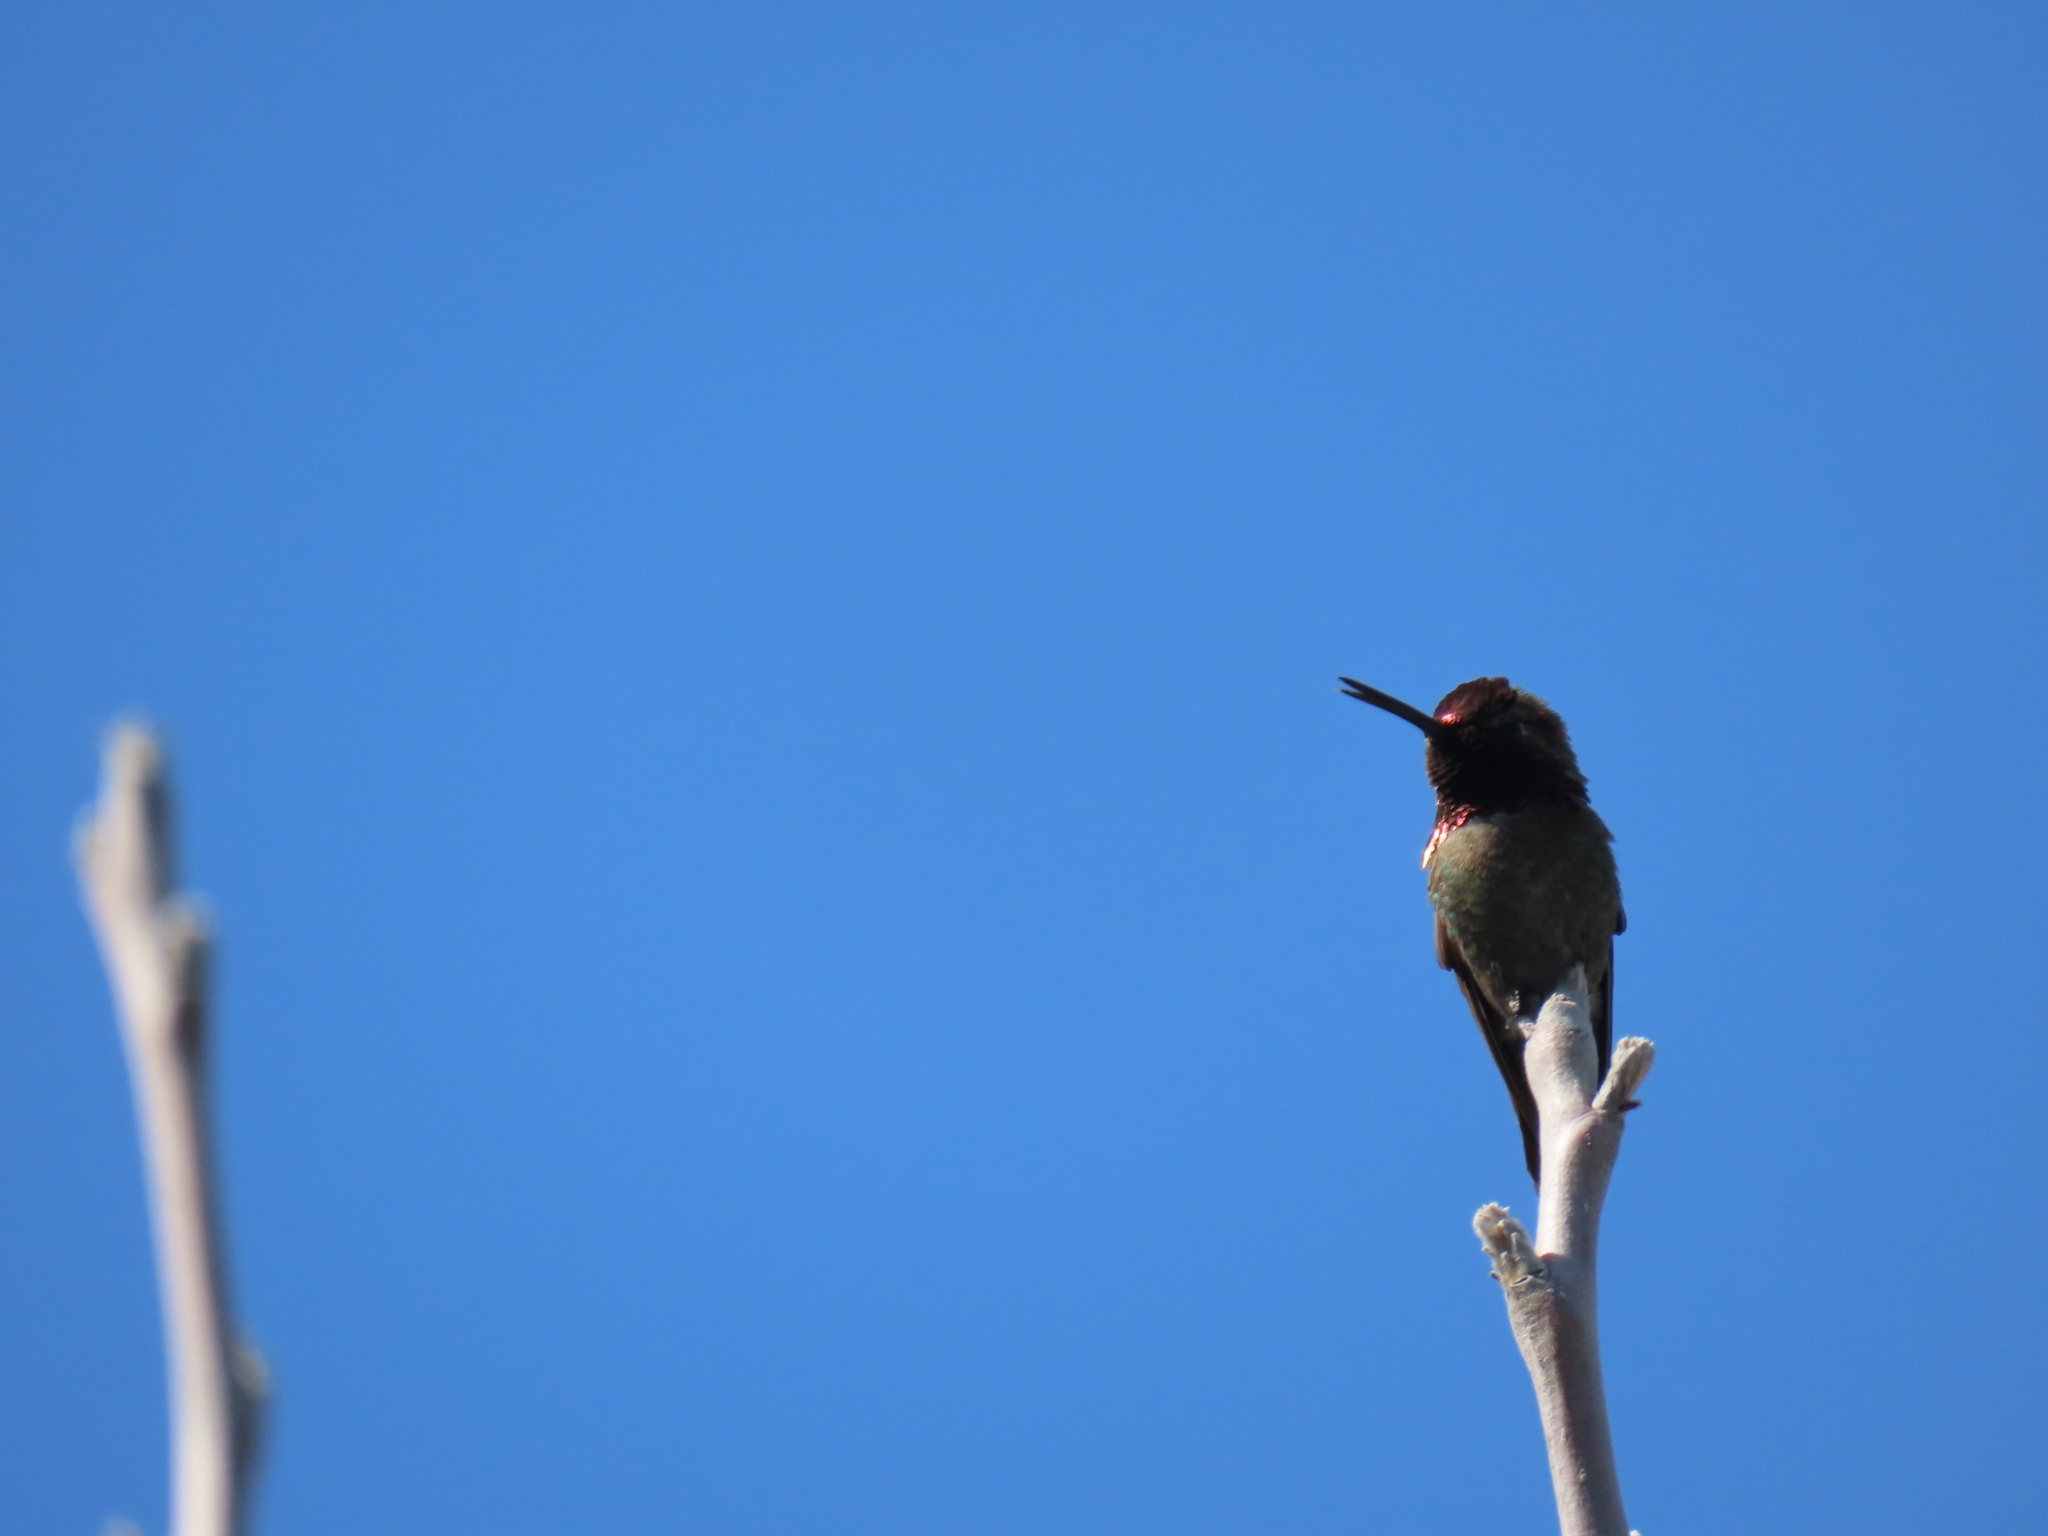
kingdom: Animalia
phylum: Chordata
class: Aves
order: Apodiformes
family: Trochilidae
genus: Calypte
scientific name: Calypte anna
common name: Anna's hummingbird
